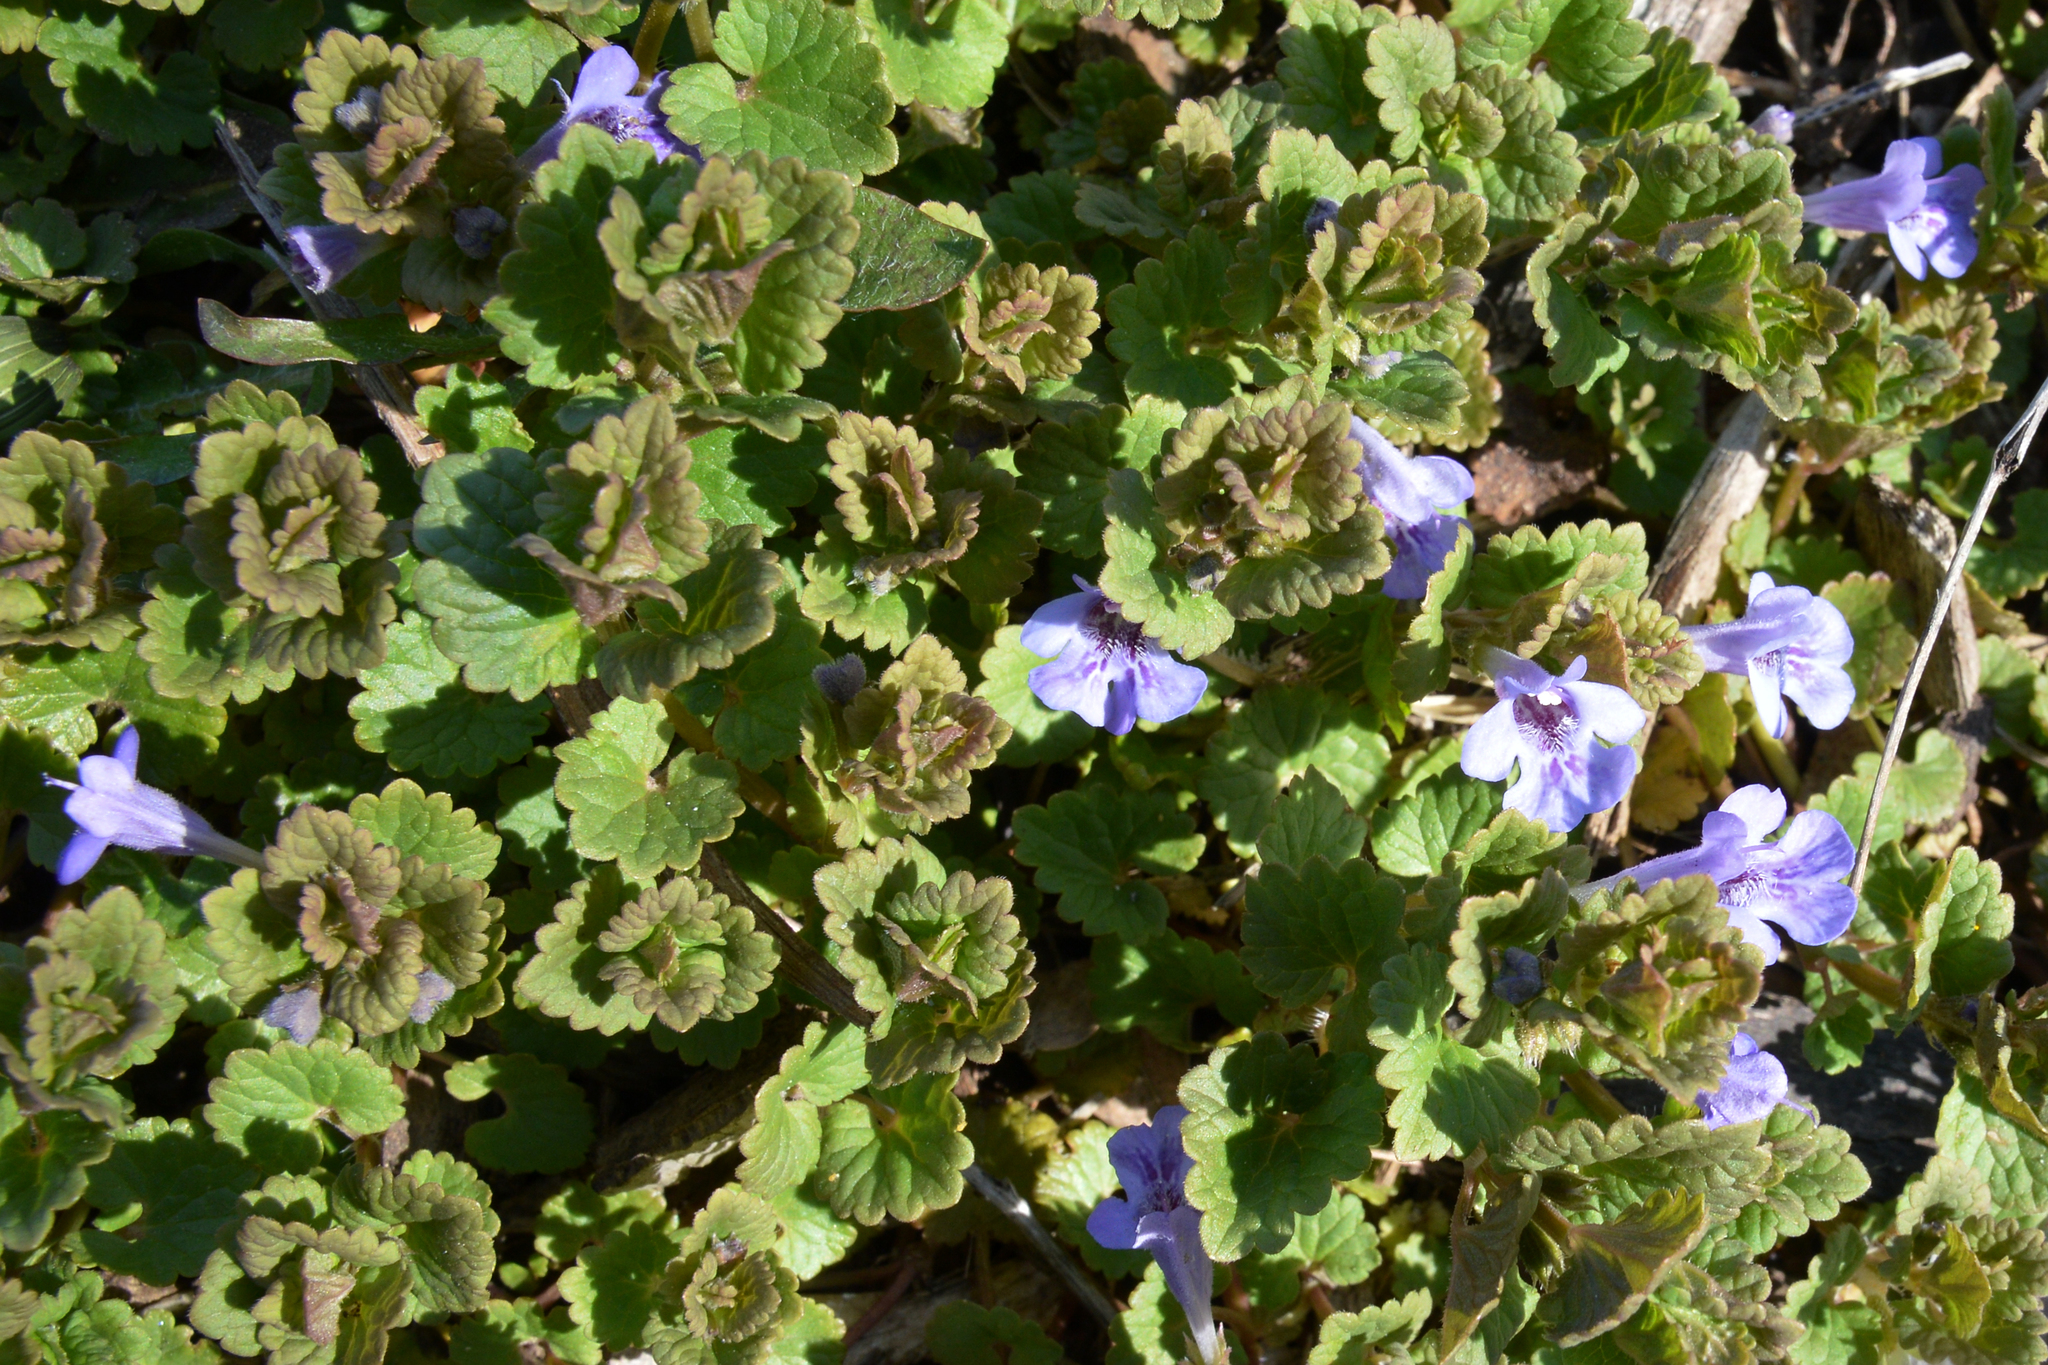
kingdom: Plantae
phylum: Tracheophyta
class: Magnoliopsida
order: Lamiales
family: Lamiaceae
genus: Glechoma
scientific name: Glechoma hederacea
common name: Ground ivy
